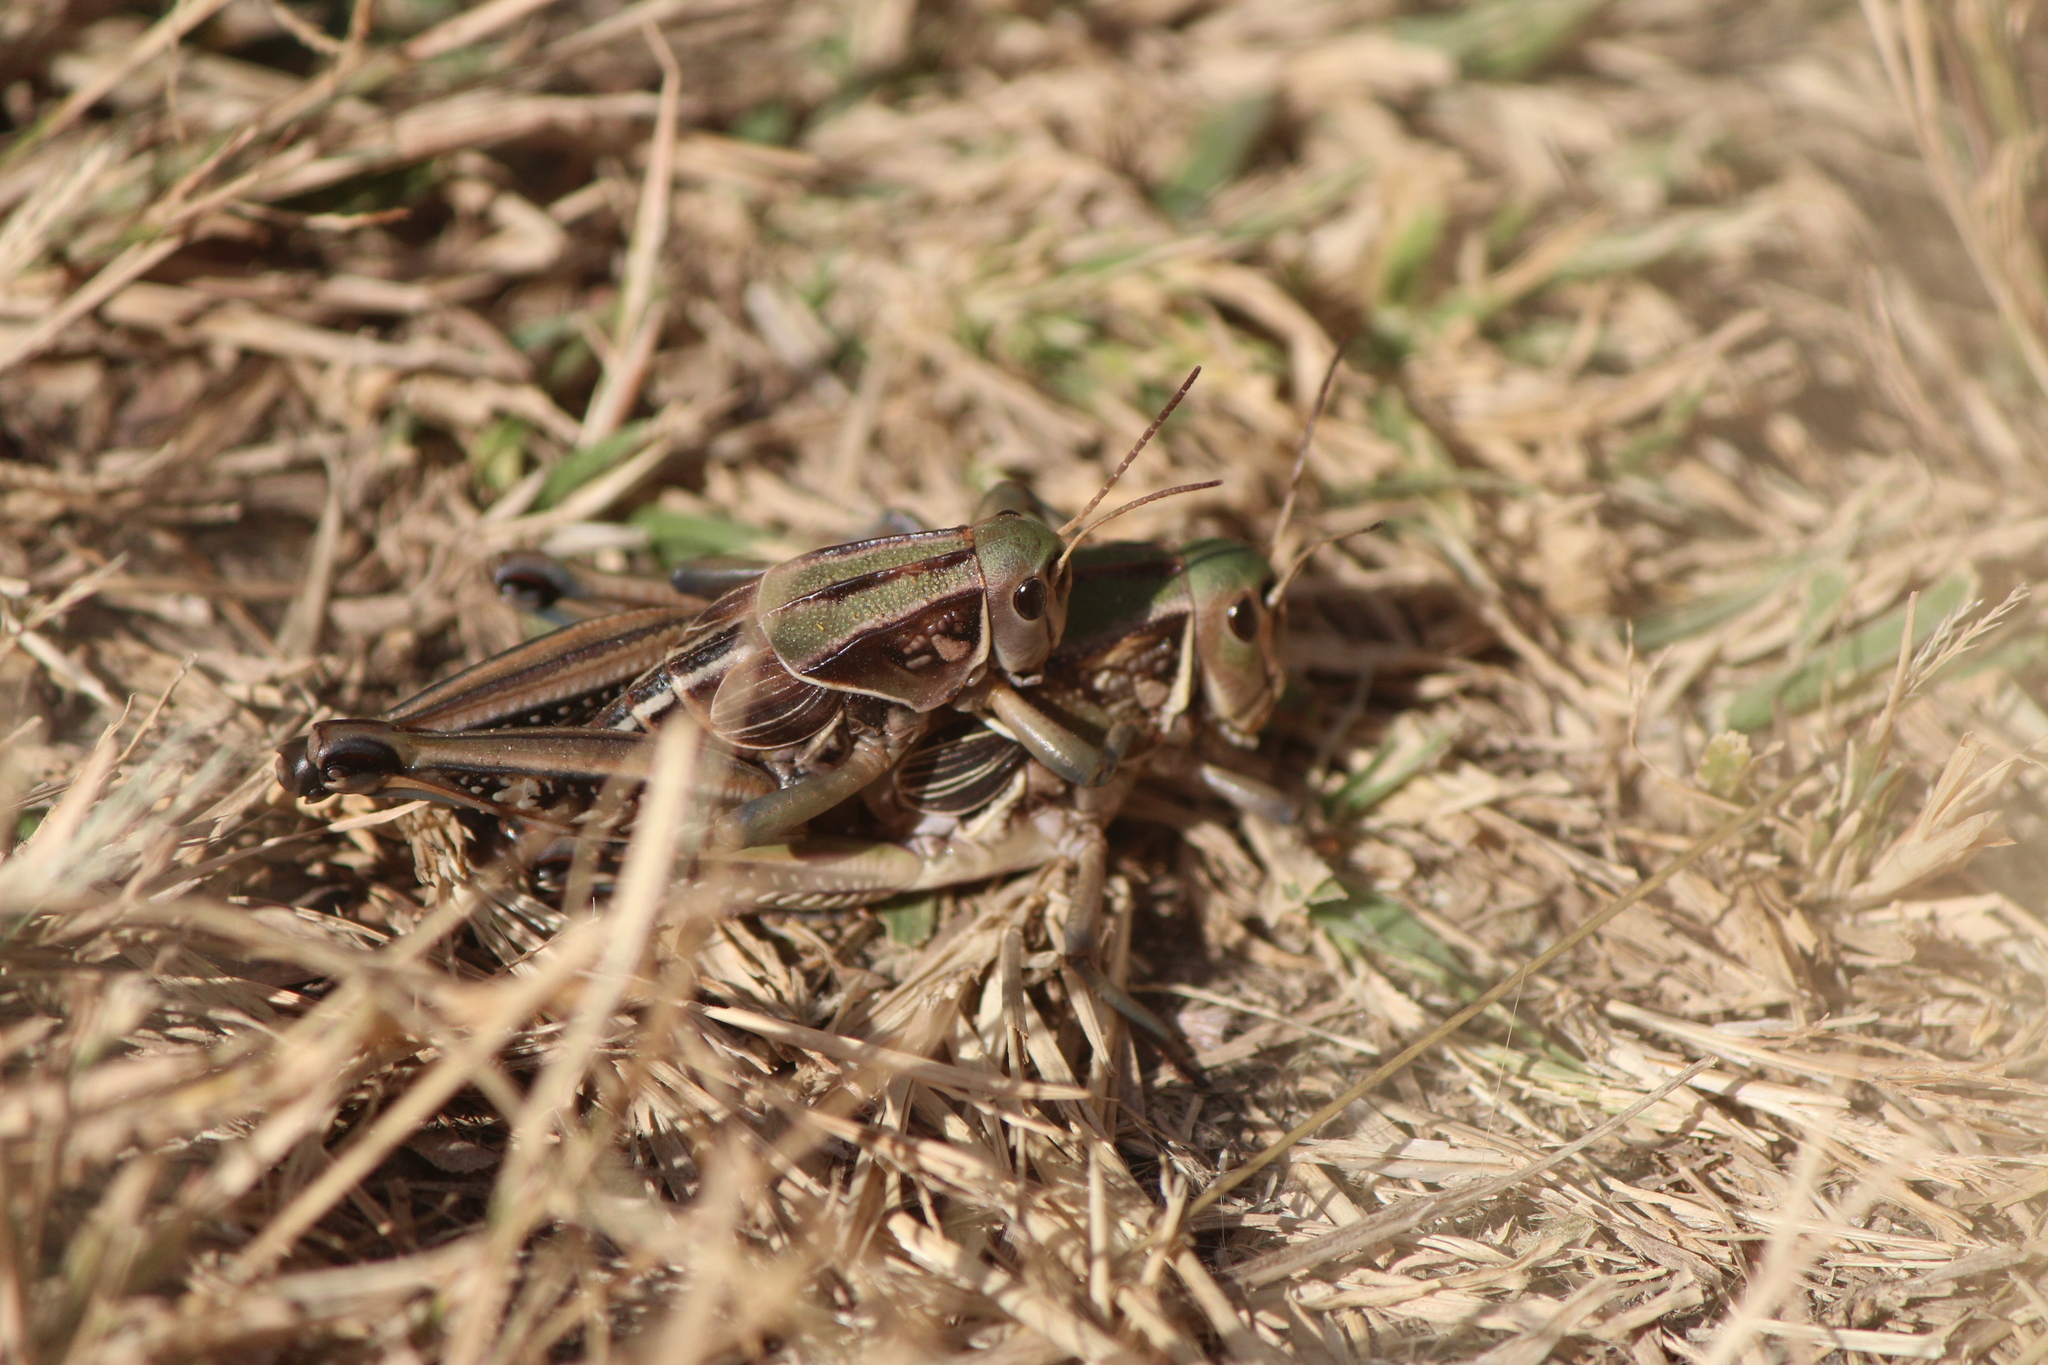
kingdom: Animalia
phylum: Arthropoda
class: Insecta
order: Orthoptera
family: Romaleidae
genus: Brachystola
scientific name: Brachystola mexicana
